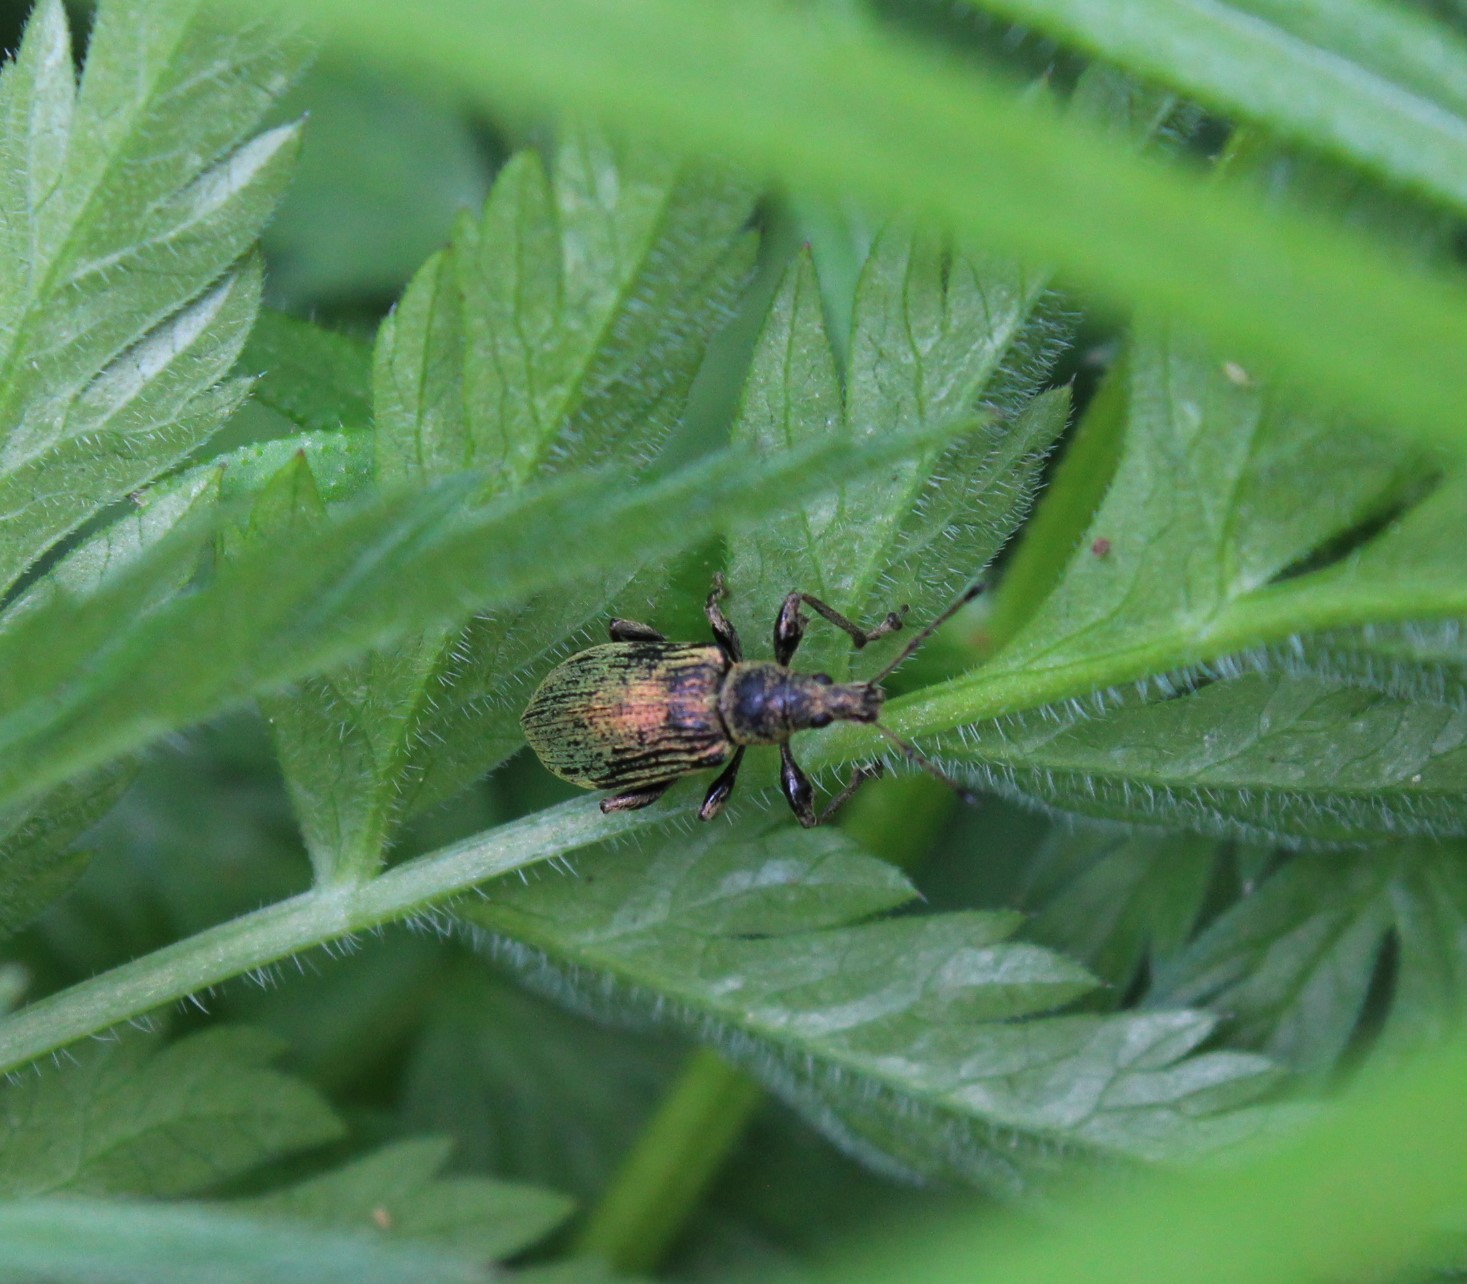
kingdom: Animalia
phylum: Arthropoda
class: Insecta
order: Coleoptera
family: Curculionidae
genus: Phyllobius
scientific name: Phyllobius pomaceus
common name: Green nettle weevil
